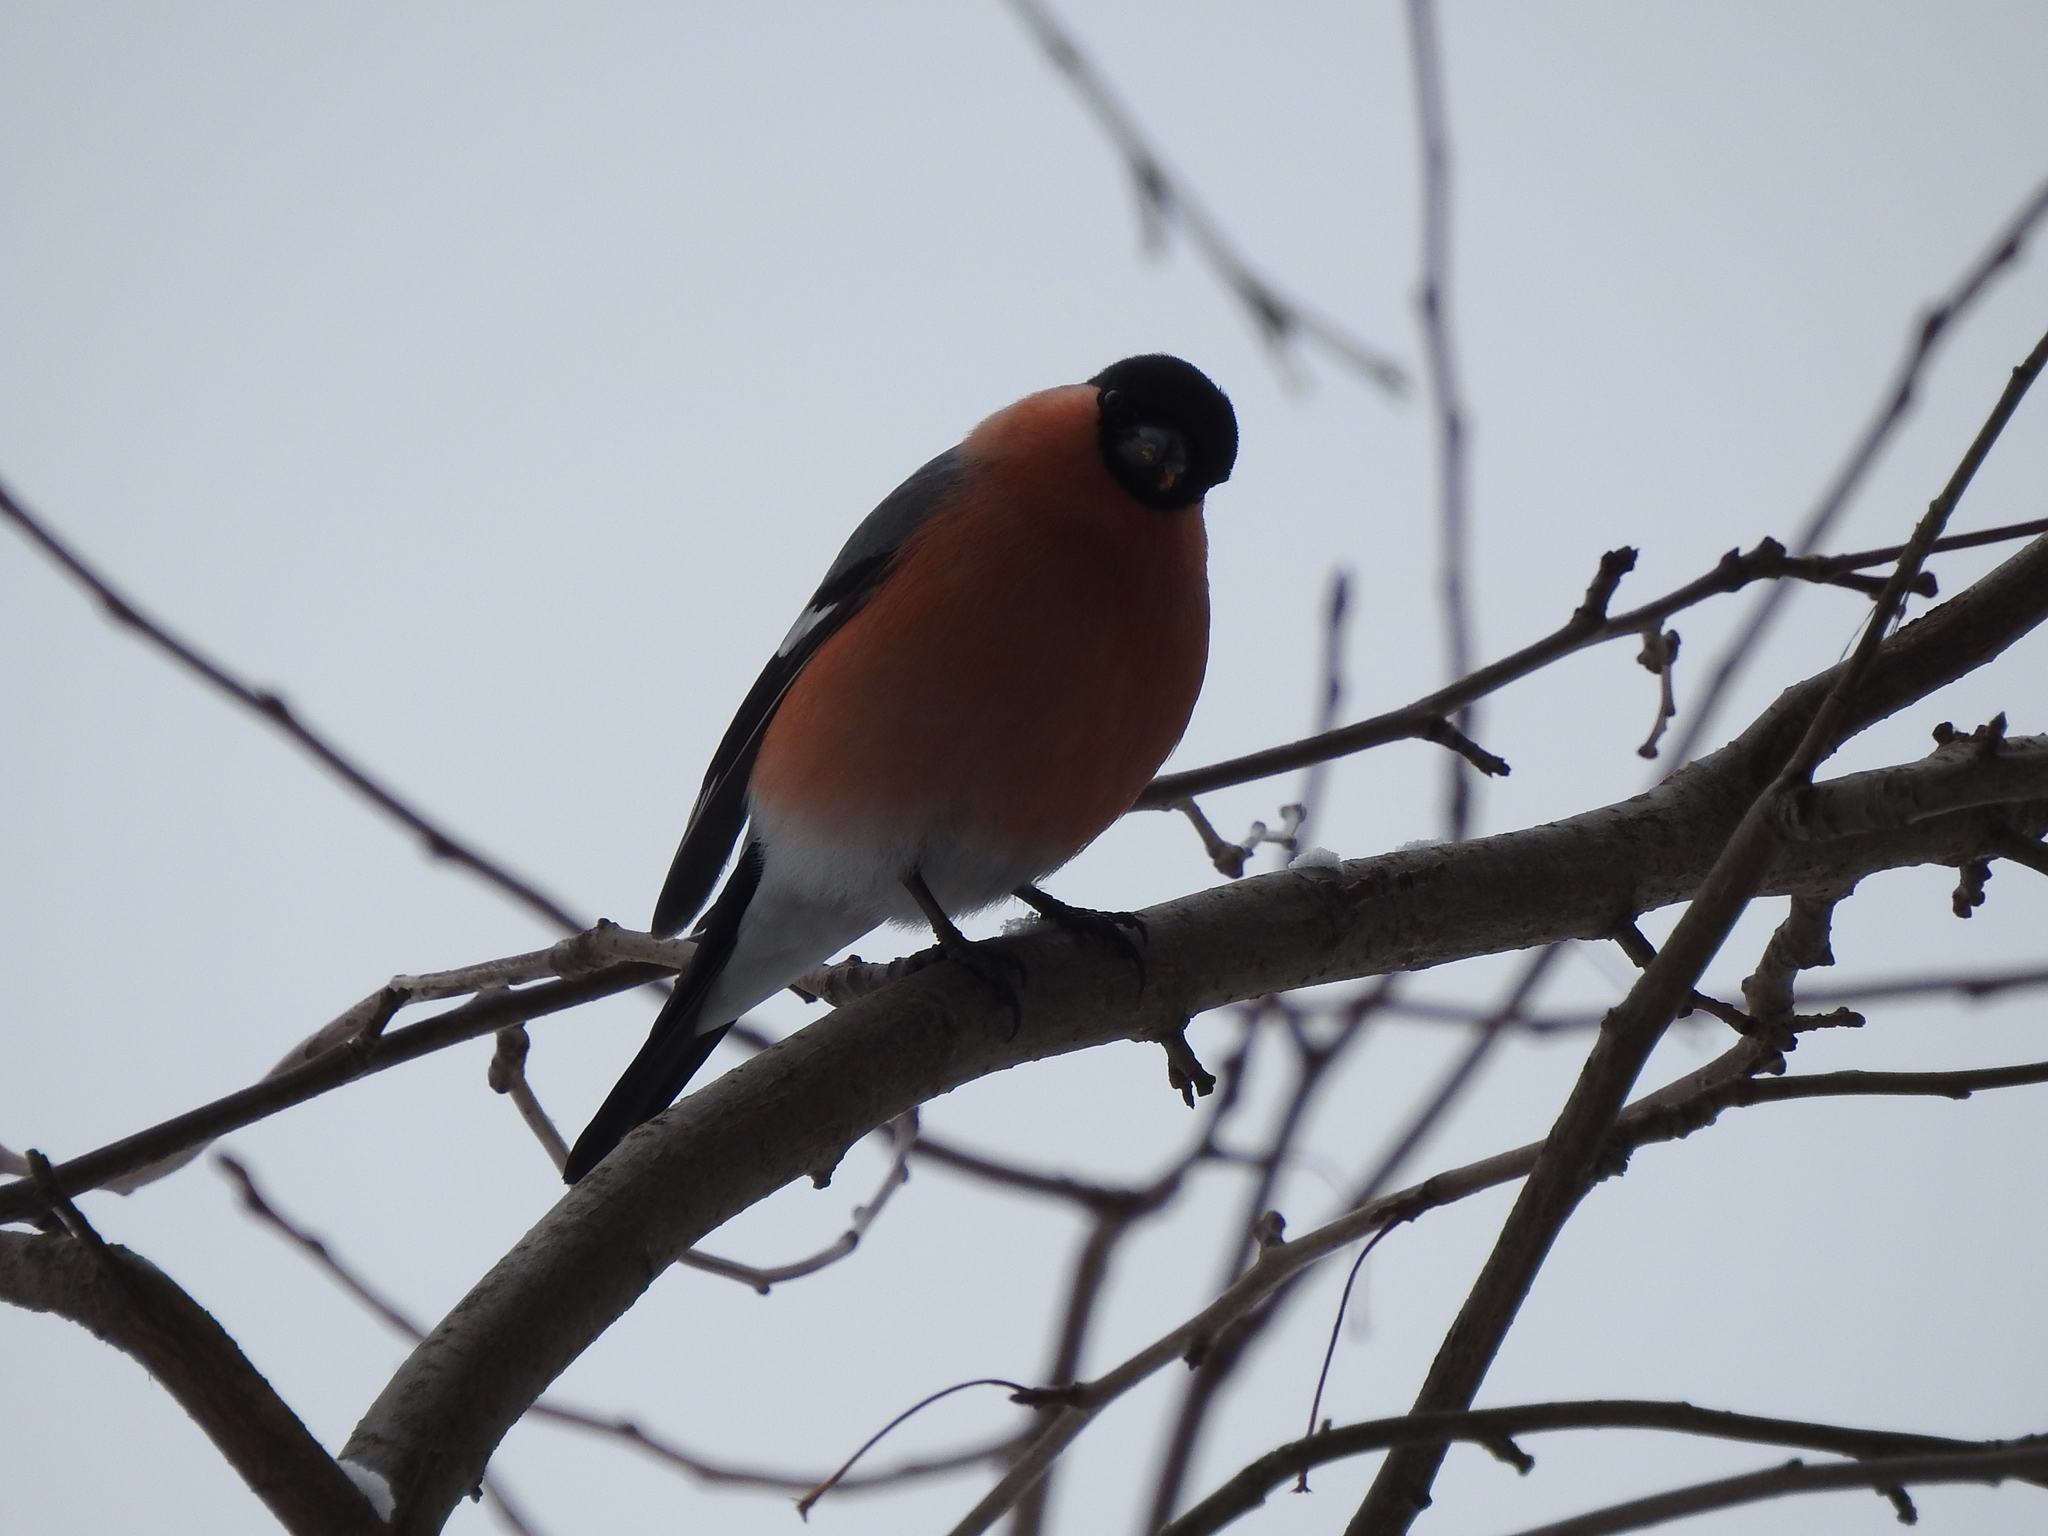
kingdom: Animalia
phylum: Chordata
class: Aves
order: Passeriformes
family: Fringillidae
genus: Pyrrhula
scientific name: Pyrrhula pyrrhula
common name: Eurasian bullfinch
